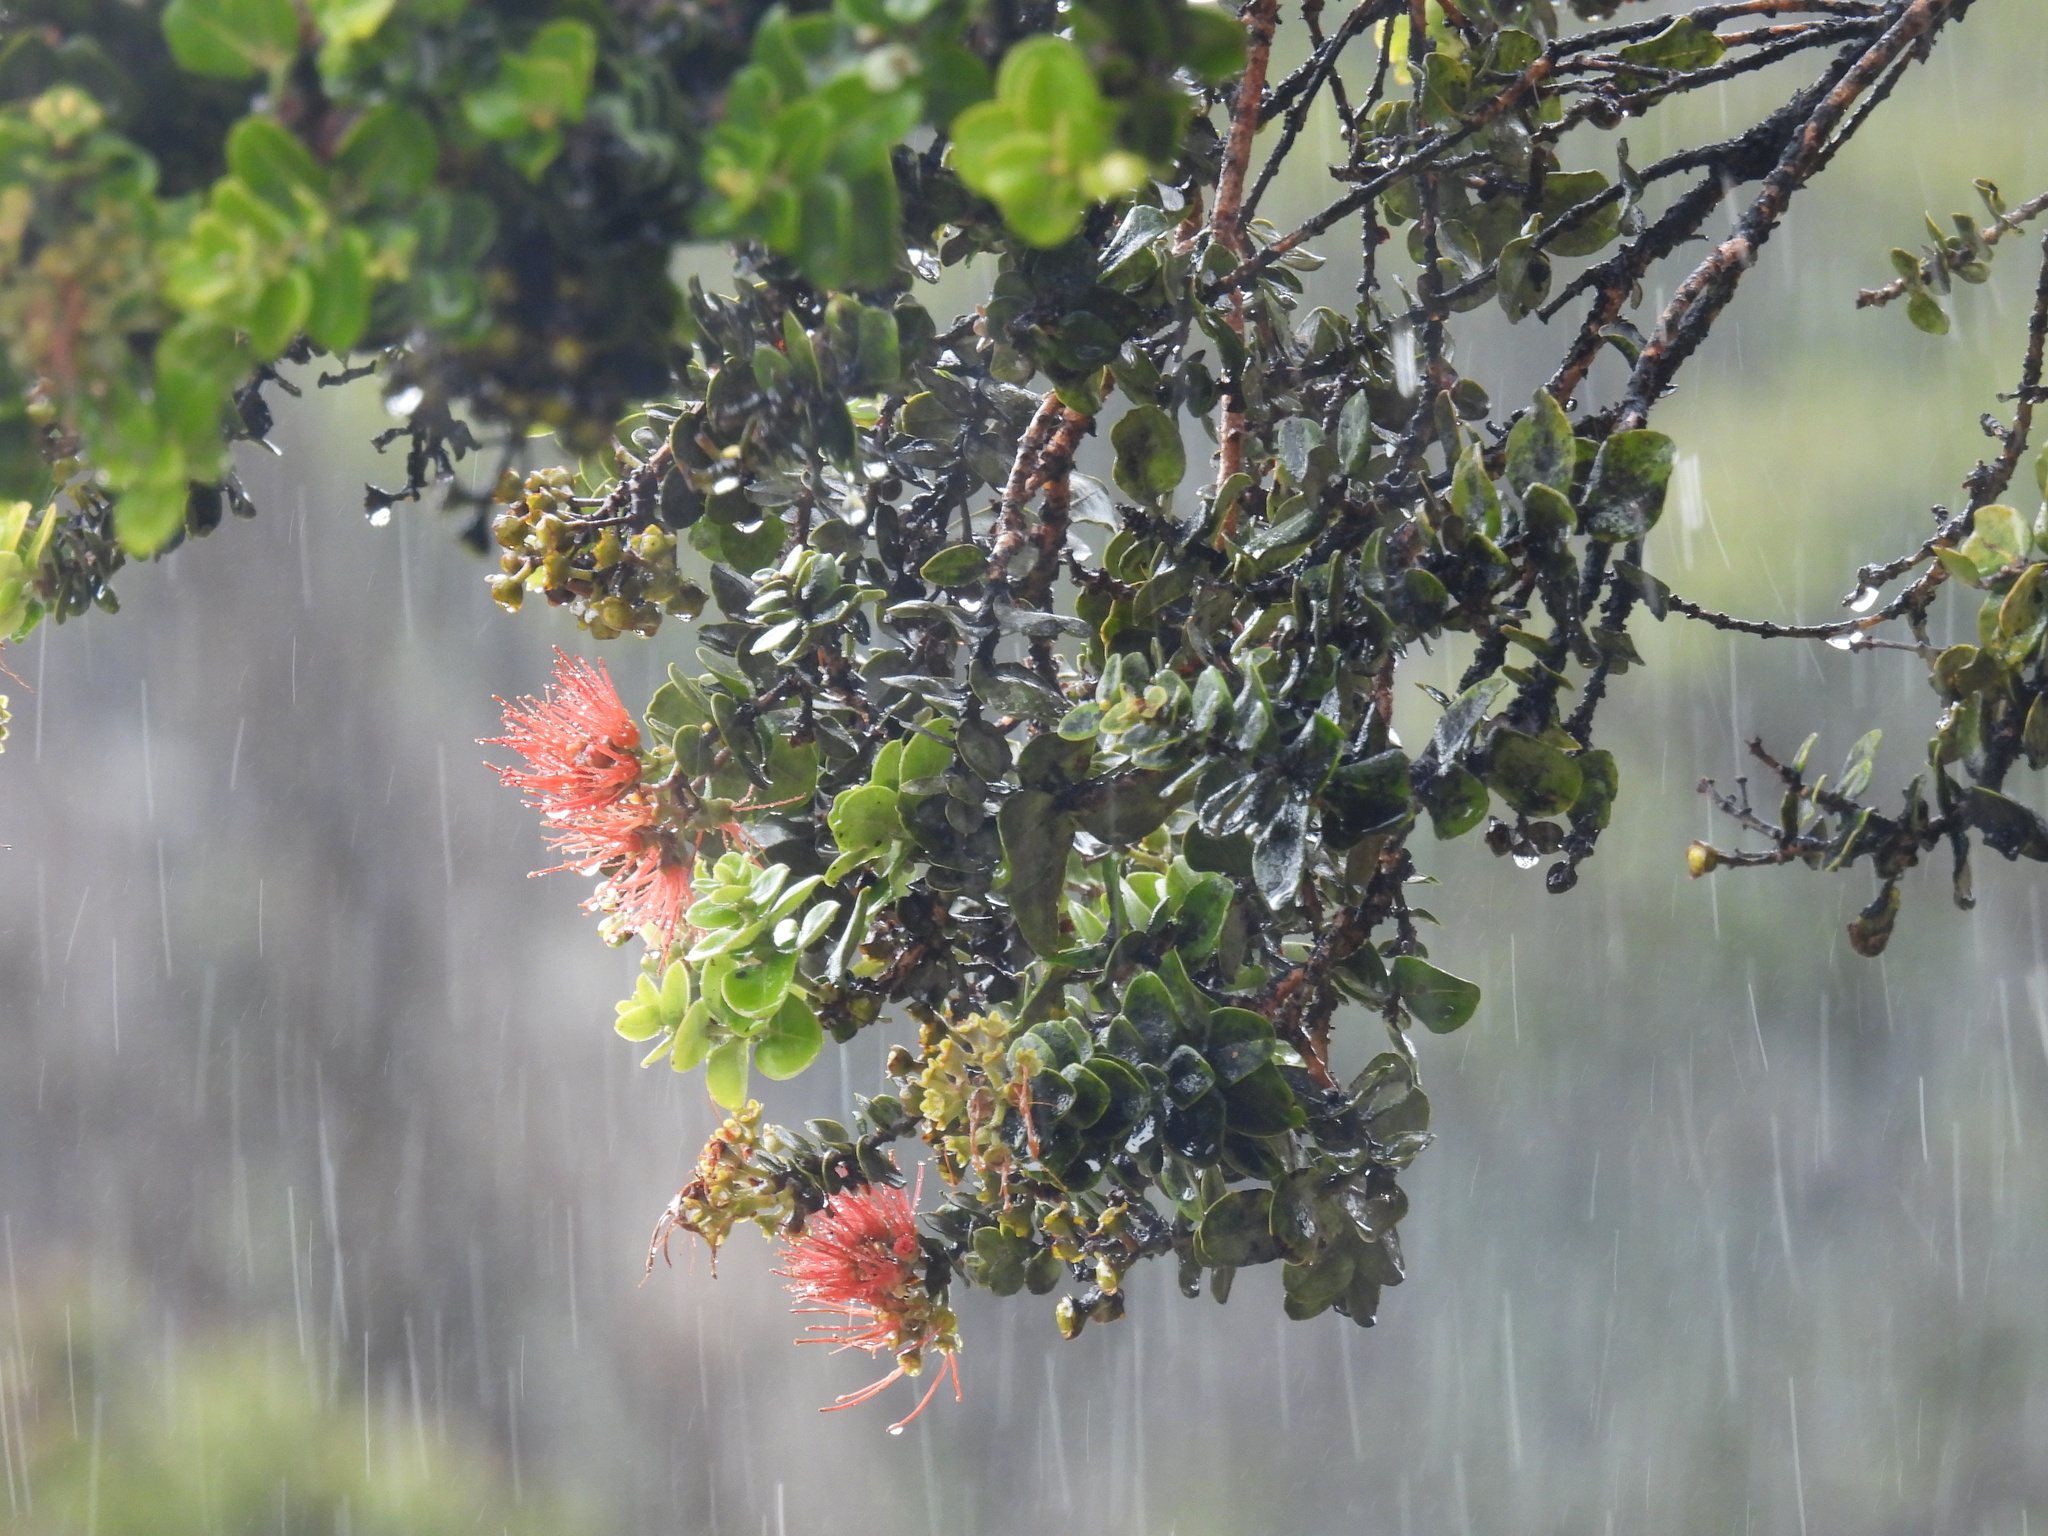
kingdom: Plantae
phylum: Tracheophyta
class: Magnoliopsida
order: Myrtales
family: Myrtaceae
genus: Metrosideros
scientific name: Metrosideros polymorpha
